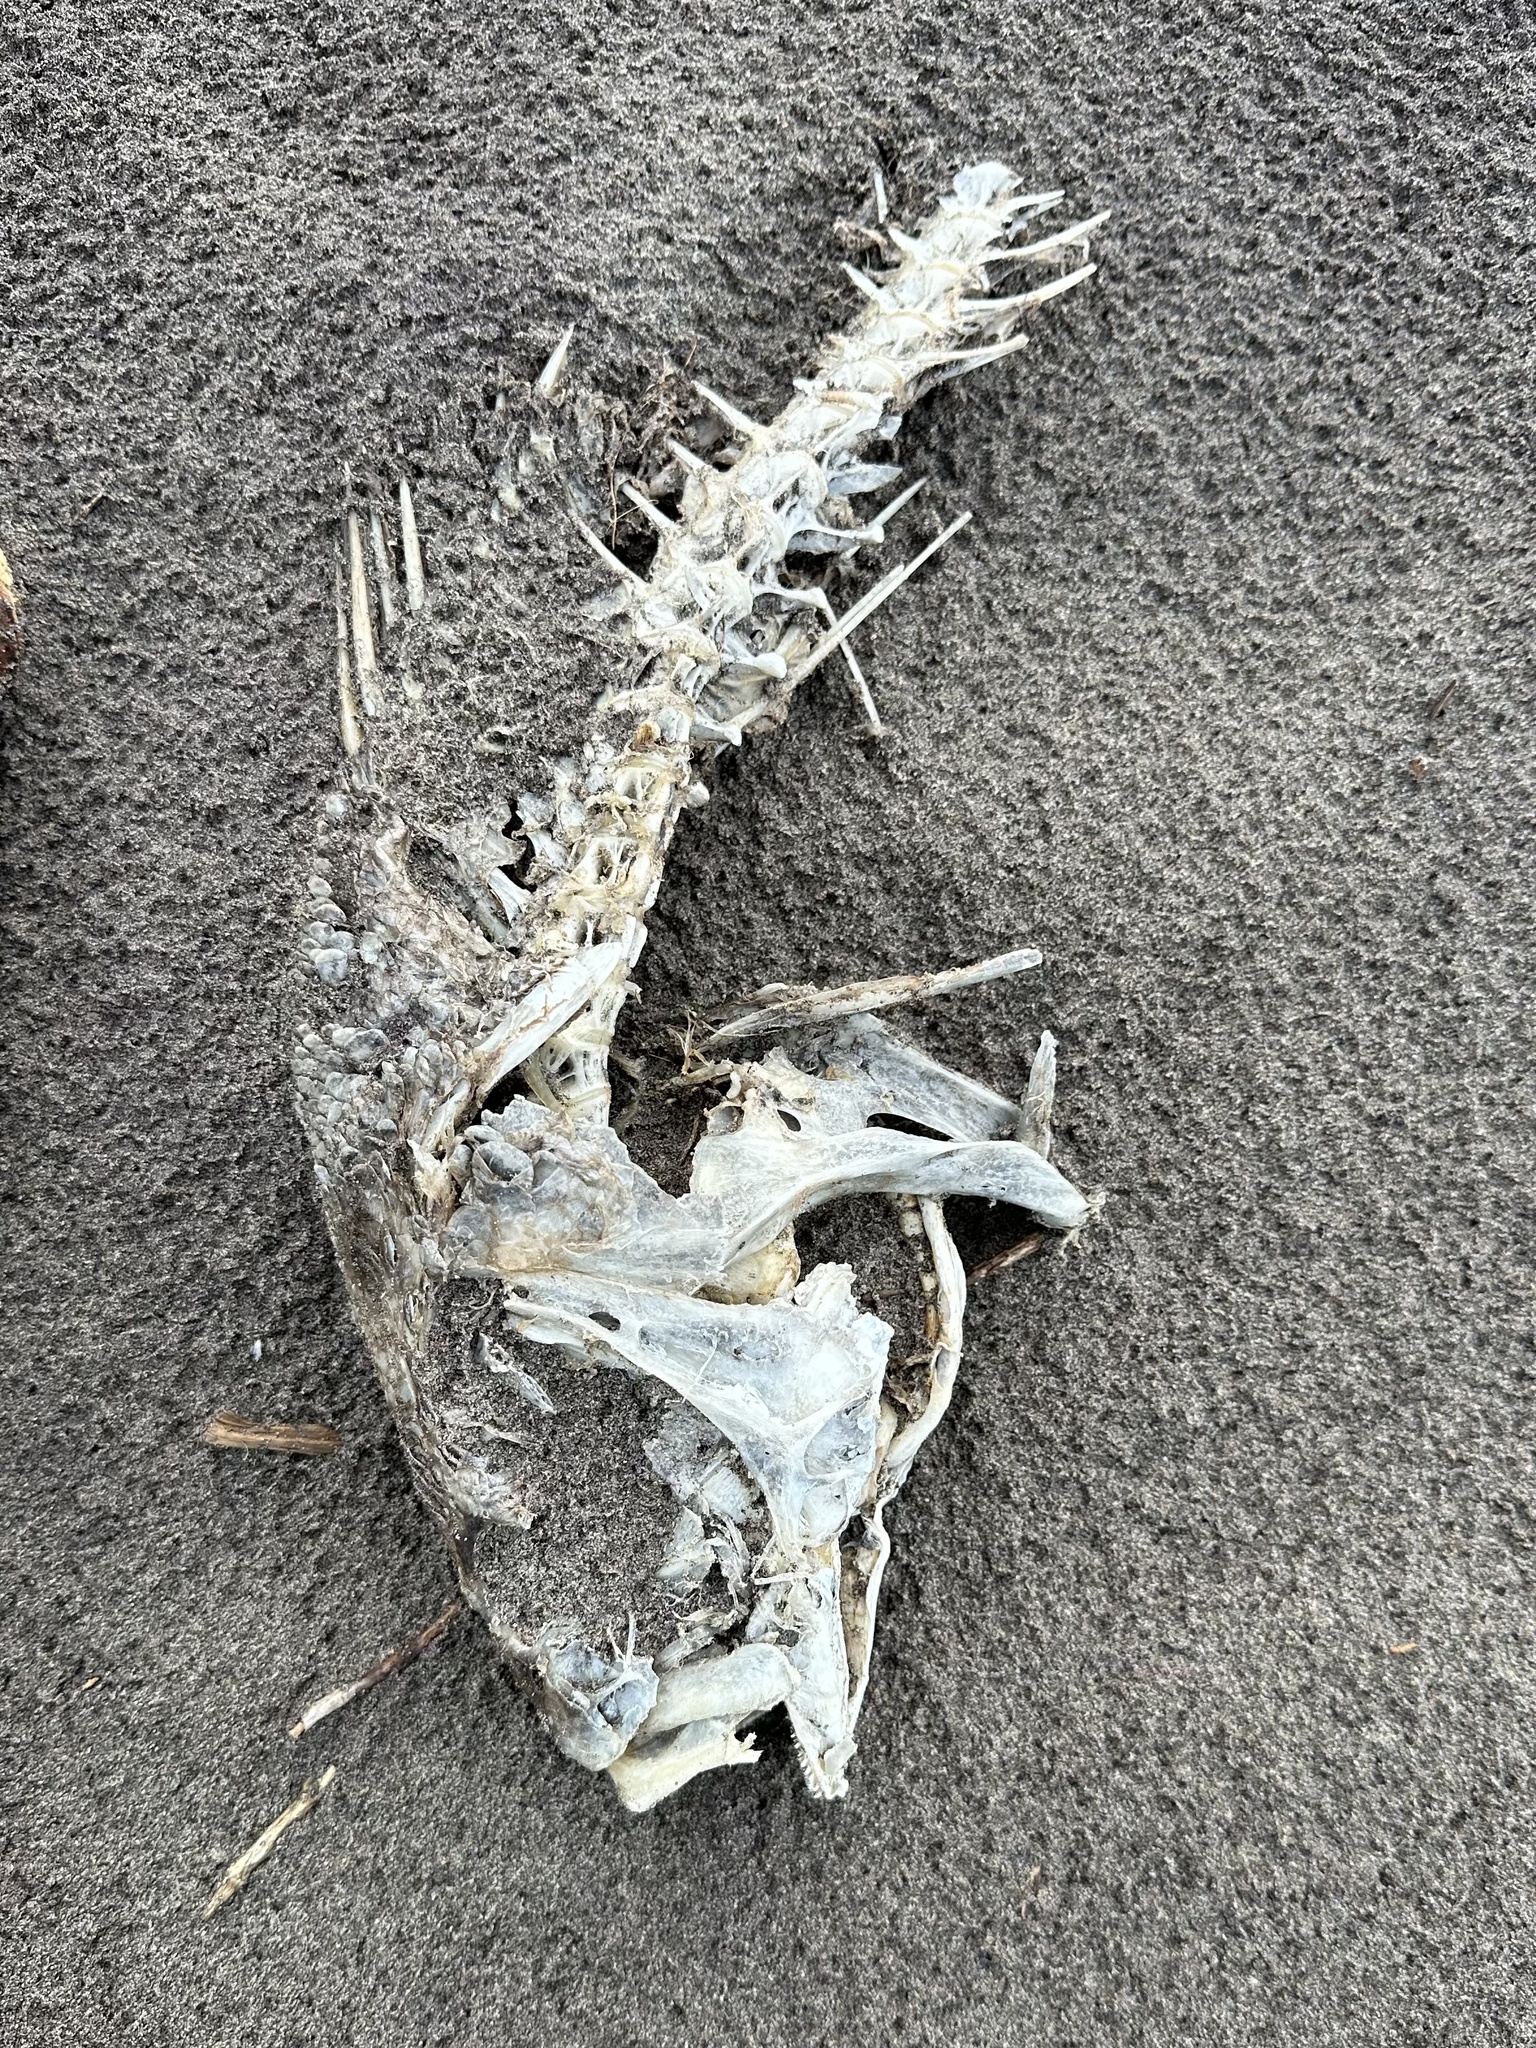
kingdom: Animalia
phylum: Chordata
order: Perciformes
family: Sciaenidae
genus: Aplodinotus
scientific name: Aplodinotus grunniens
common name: Freshwater drum
